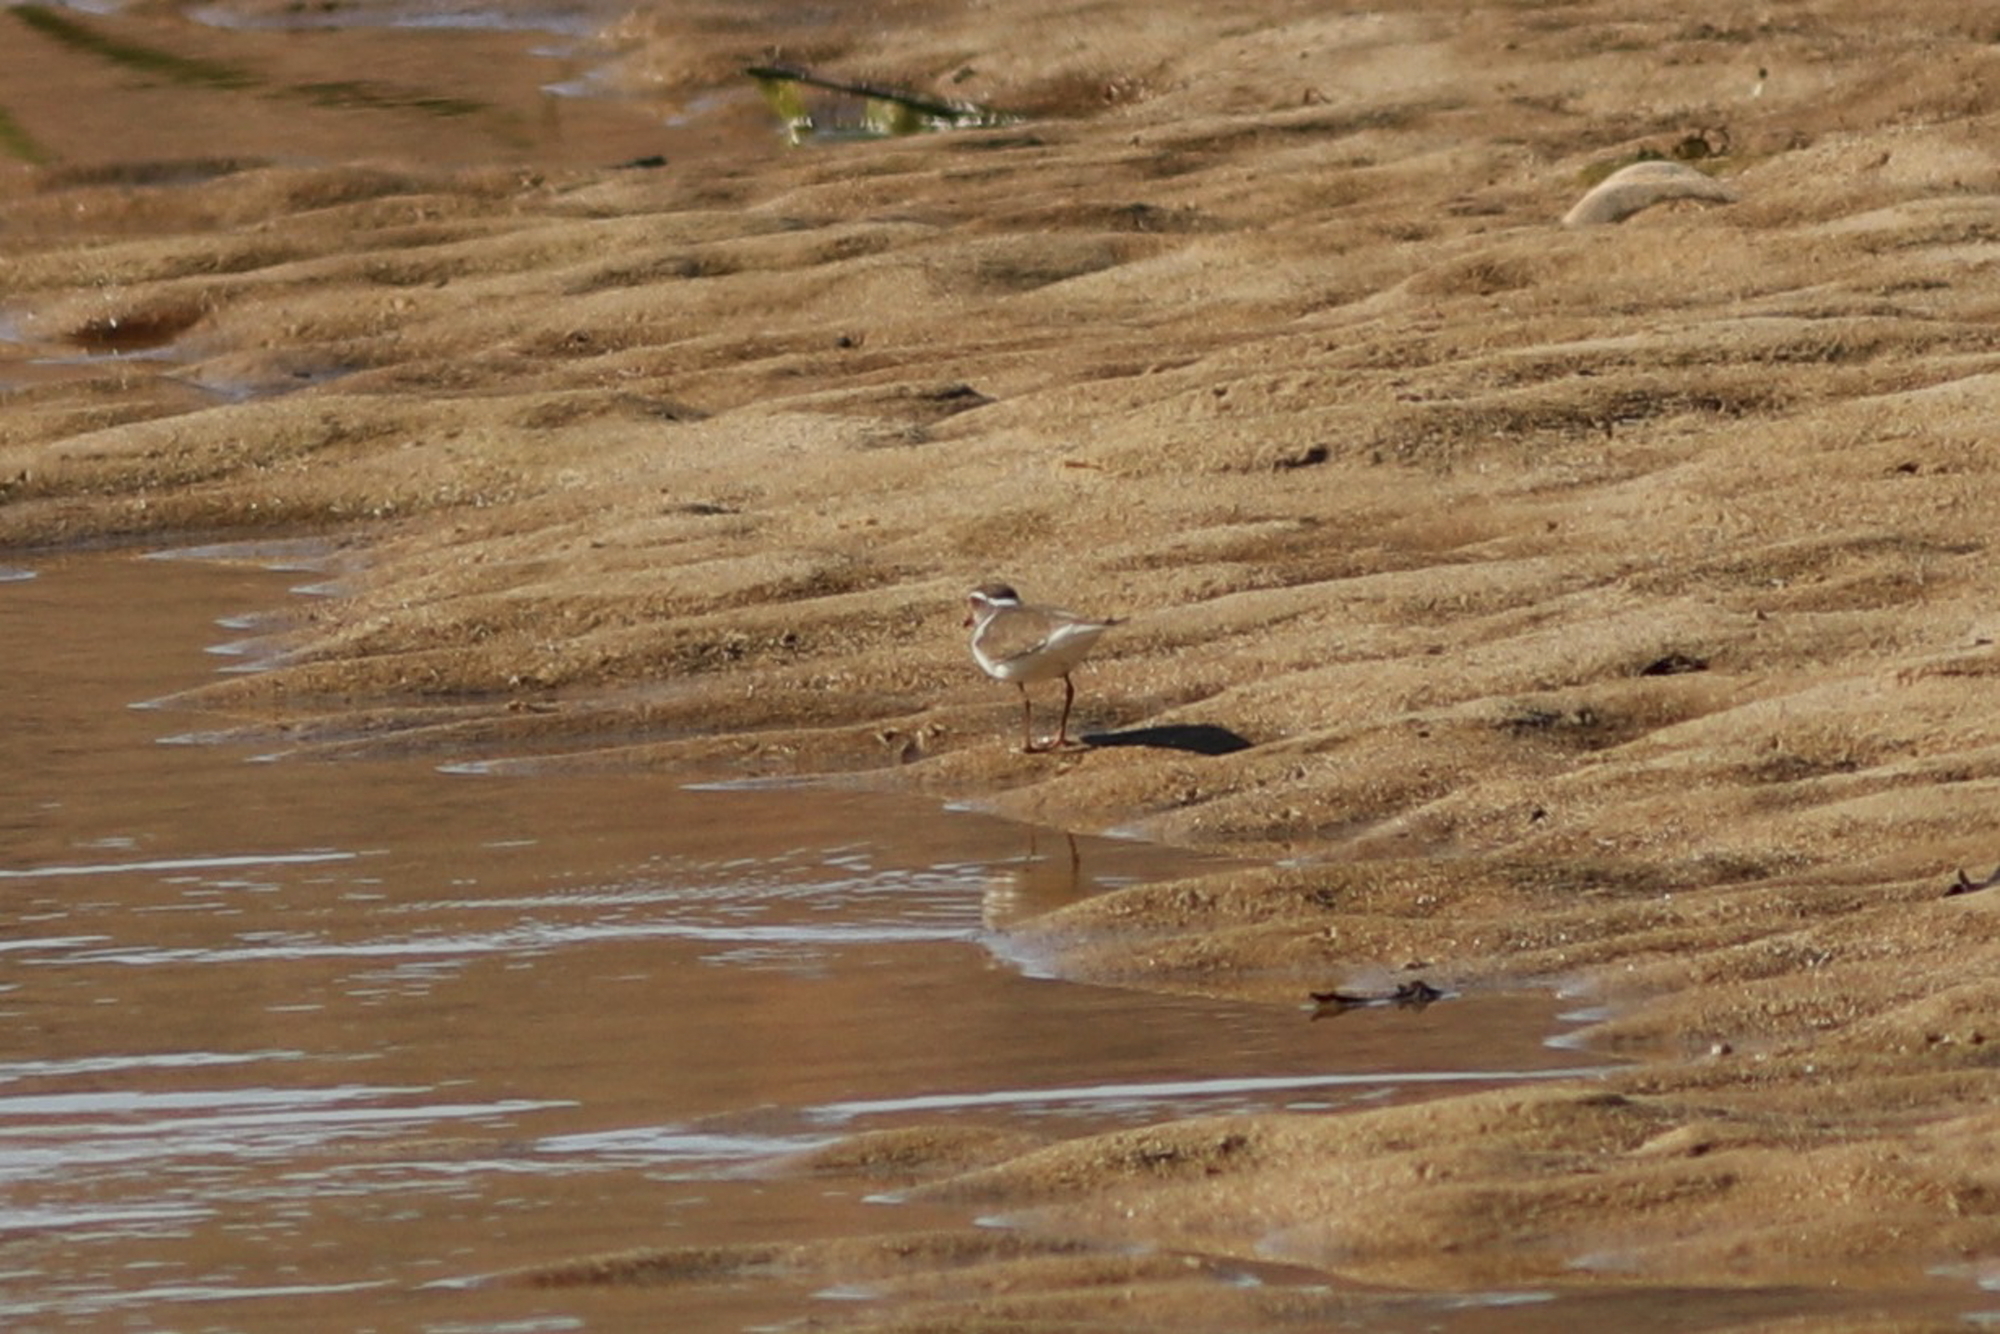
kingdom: Animalia
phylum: Chordata
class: Aves
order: Charadriiformes
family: Charadriidae
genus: Charadrius
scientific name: Charadrius tricollaris
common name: Three-banded plover
